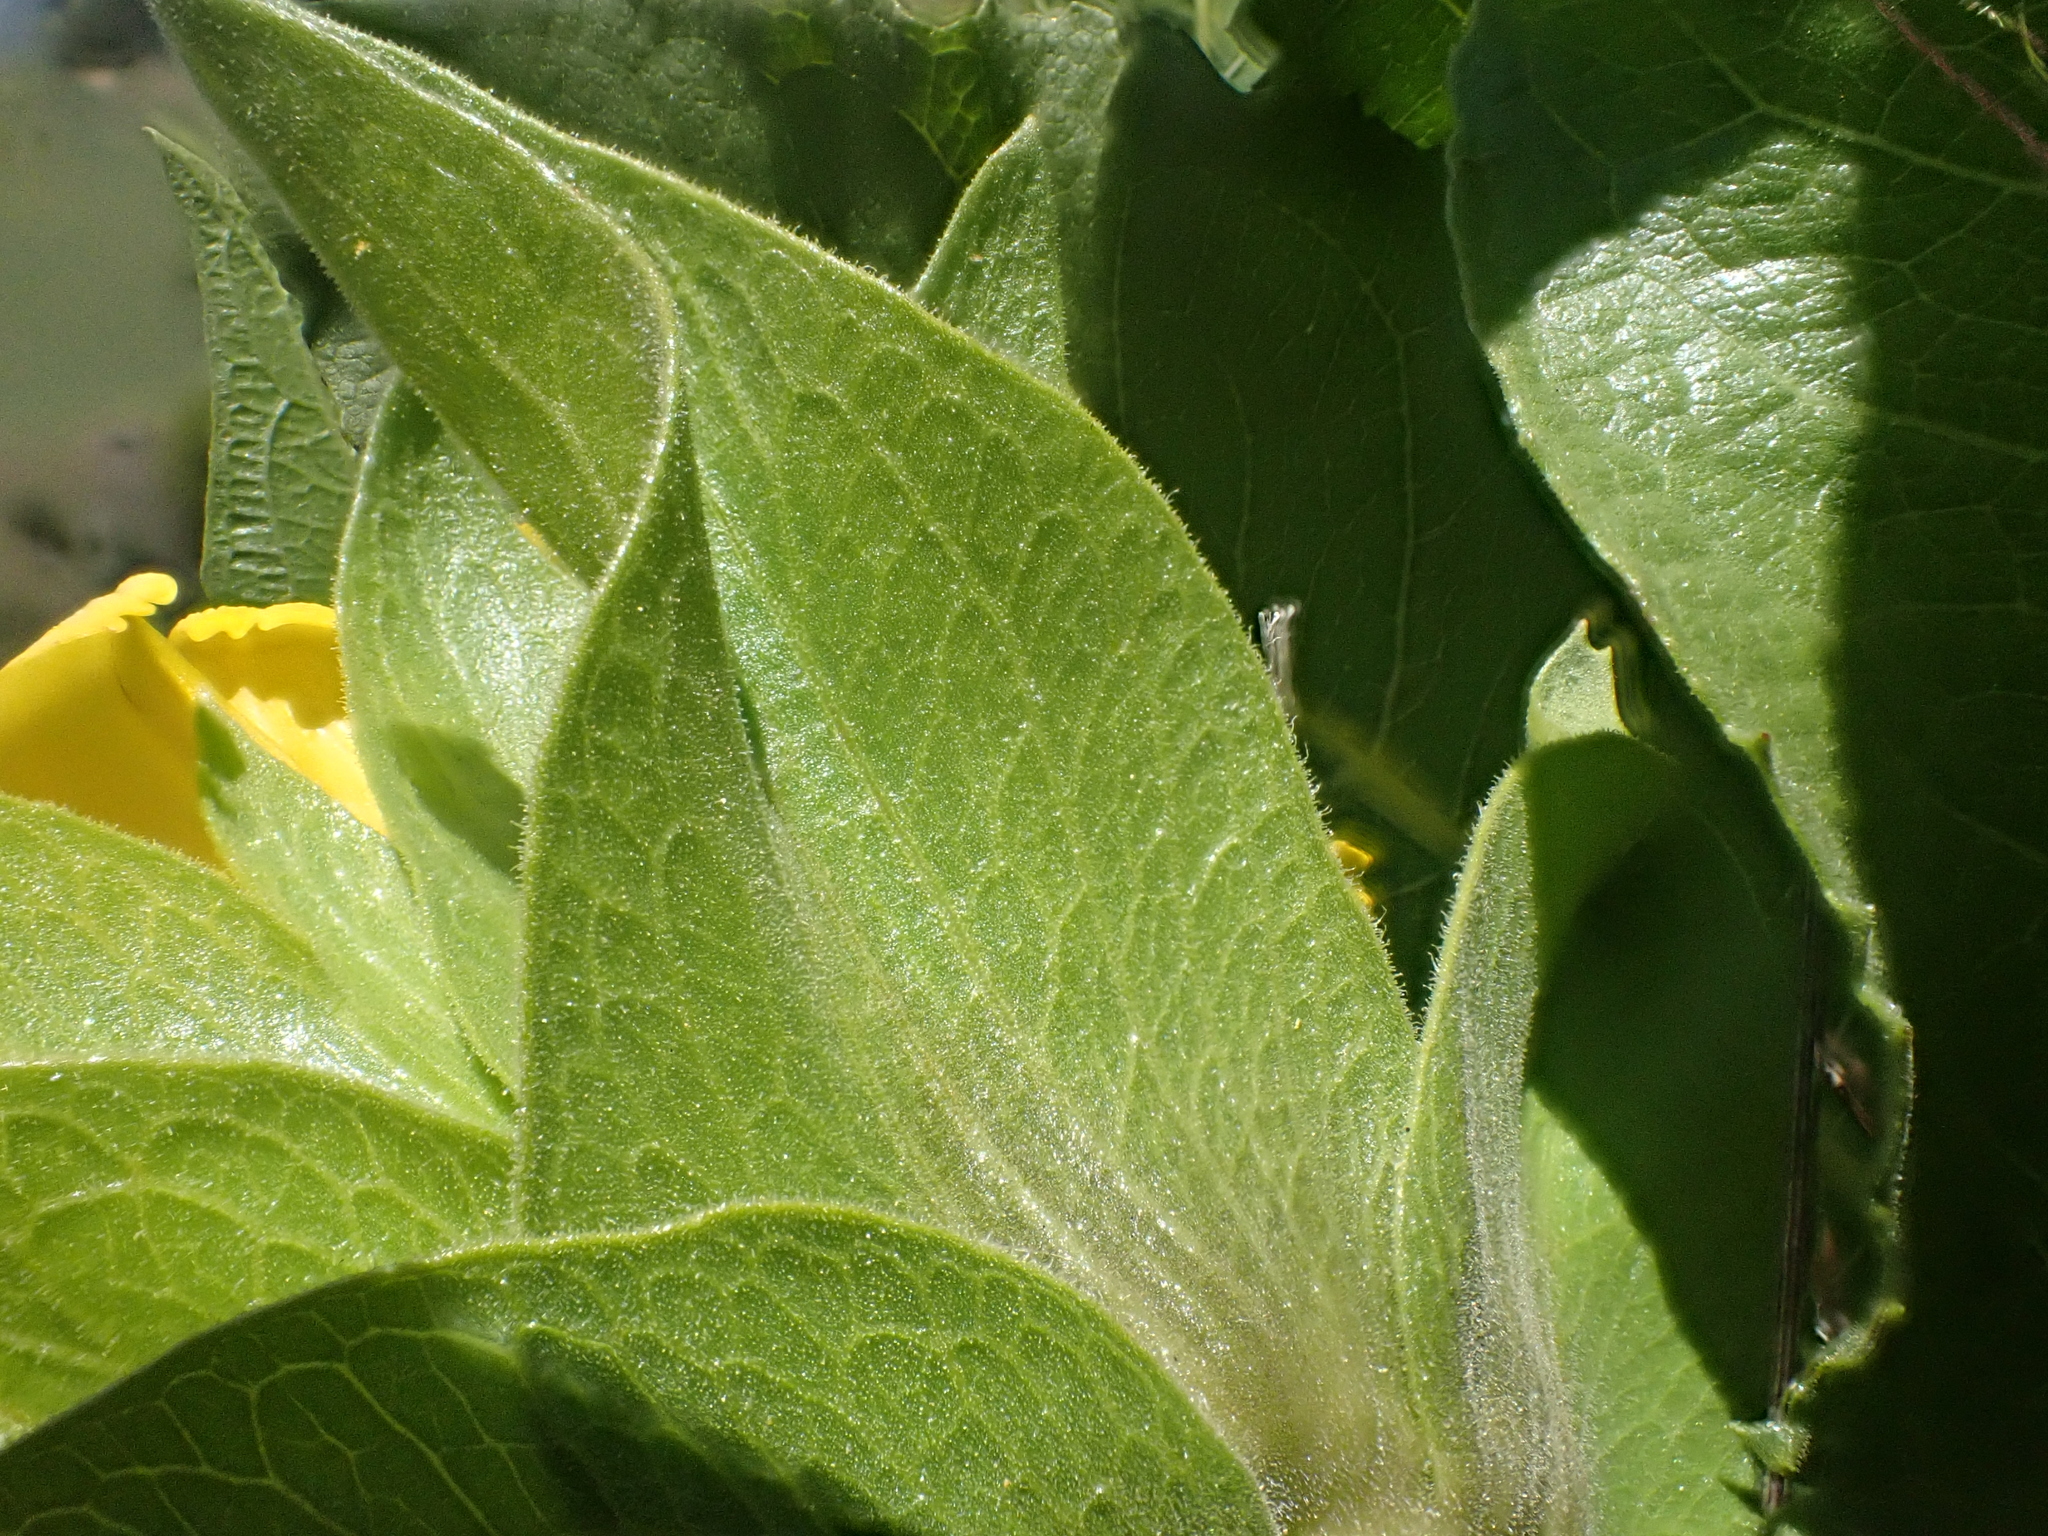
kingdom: Plantae
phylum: Tracheophyta
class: Magnoliopsida
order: Asterales
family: Asteraceae
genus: Wyethia
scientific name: Wyethia glabra
